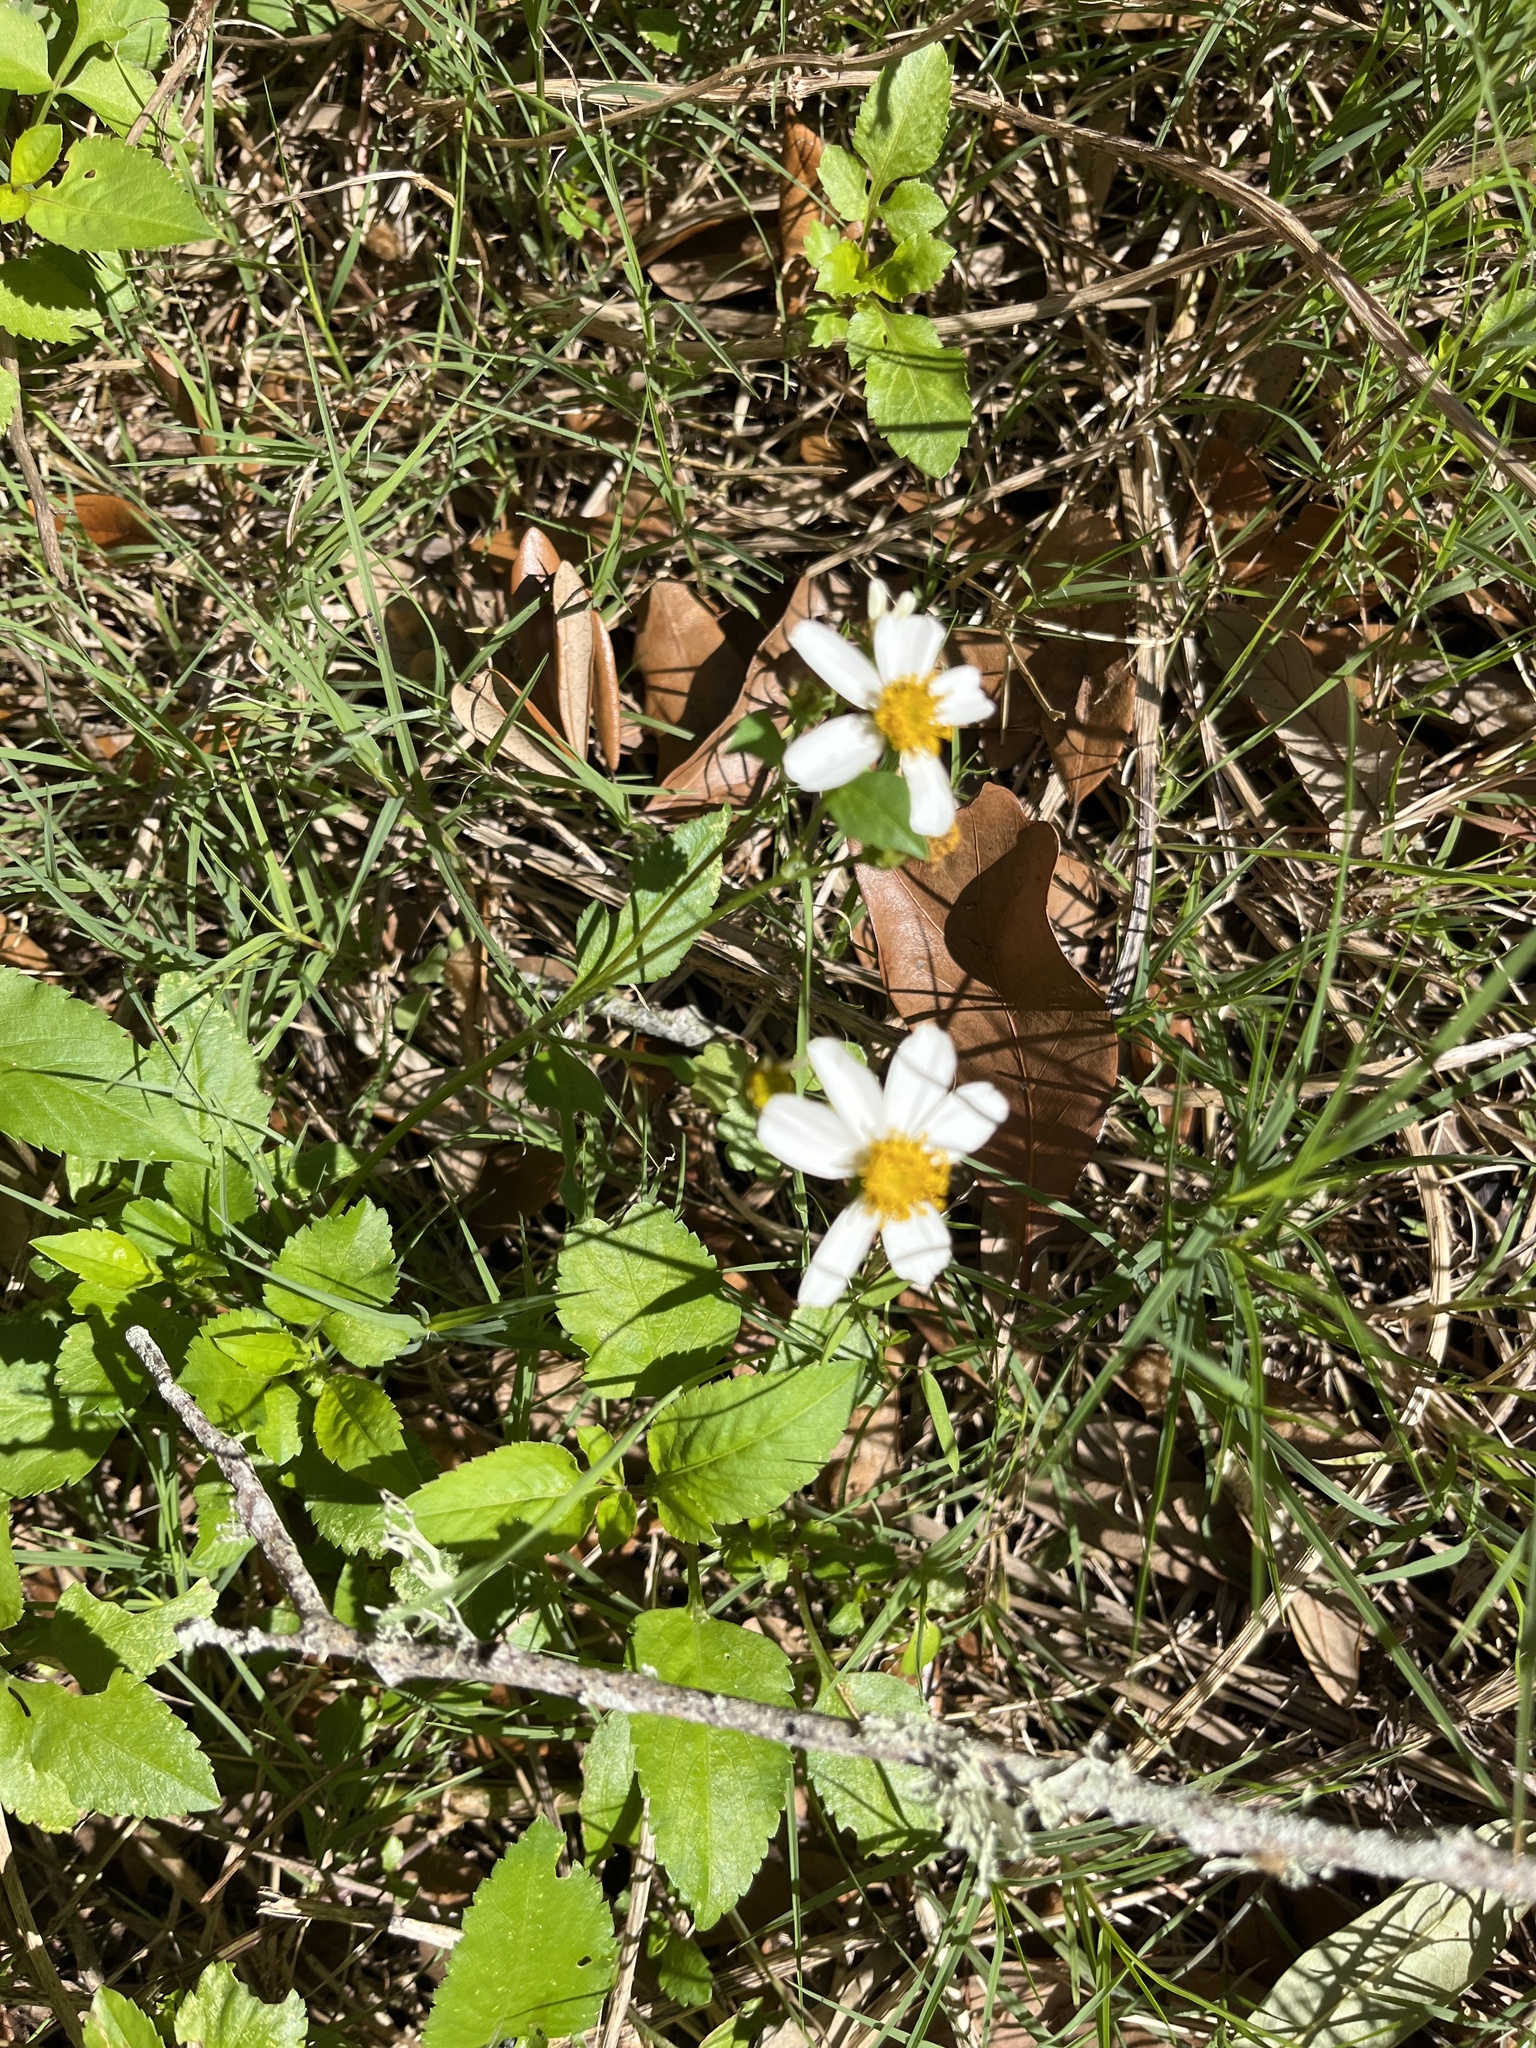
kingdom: Plantae
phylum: Tracheophyta
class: Magnoliopsida
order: Asterales
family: Asteraceae
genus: Bidens
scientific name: Bidens alba
